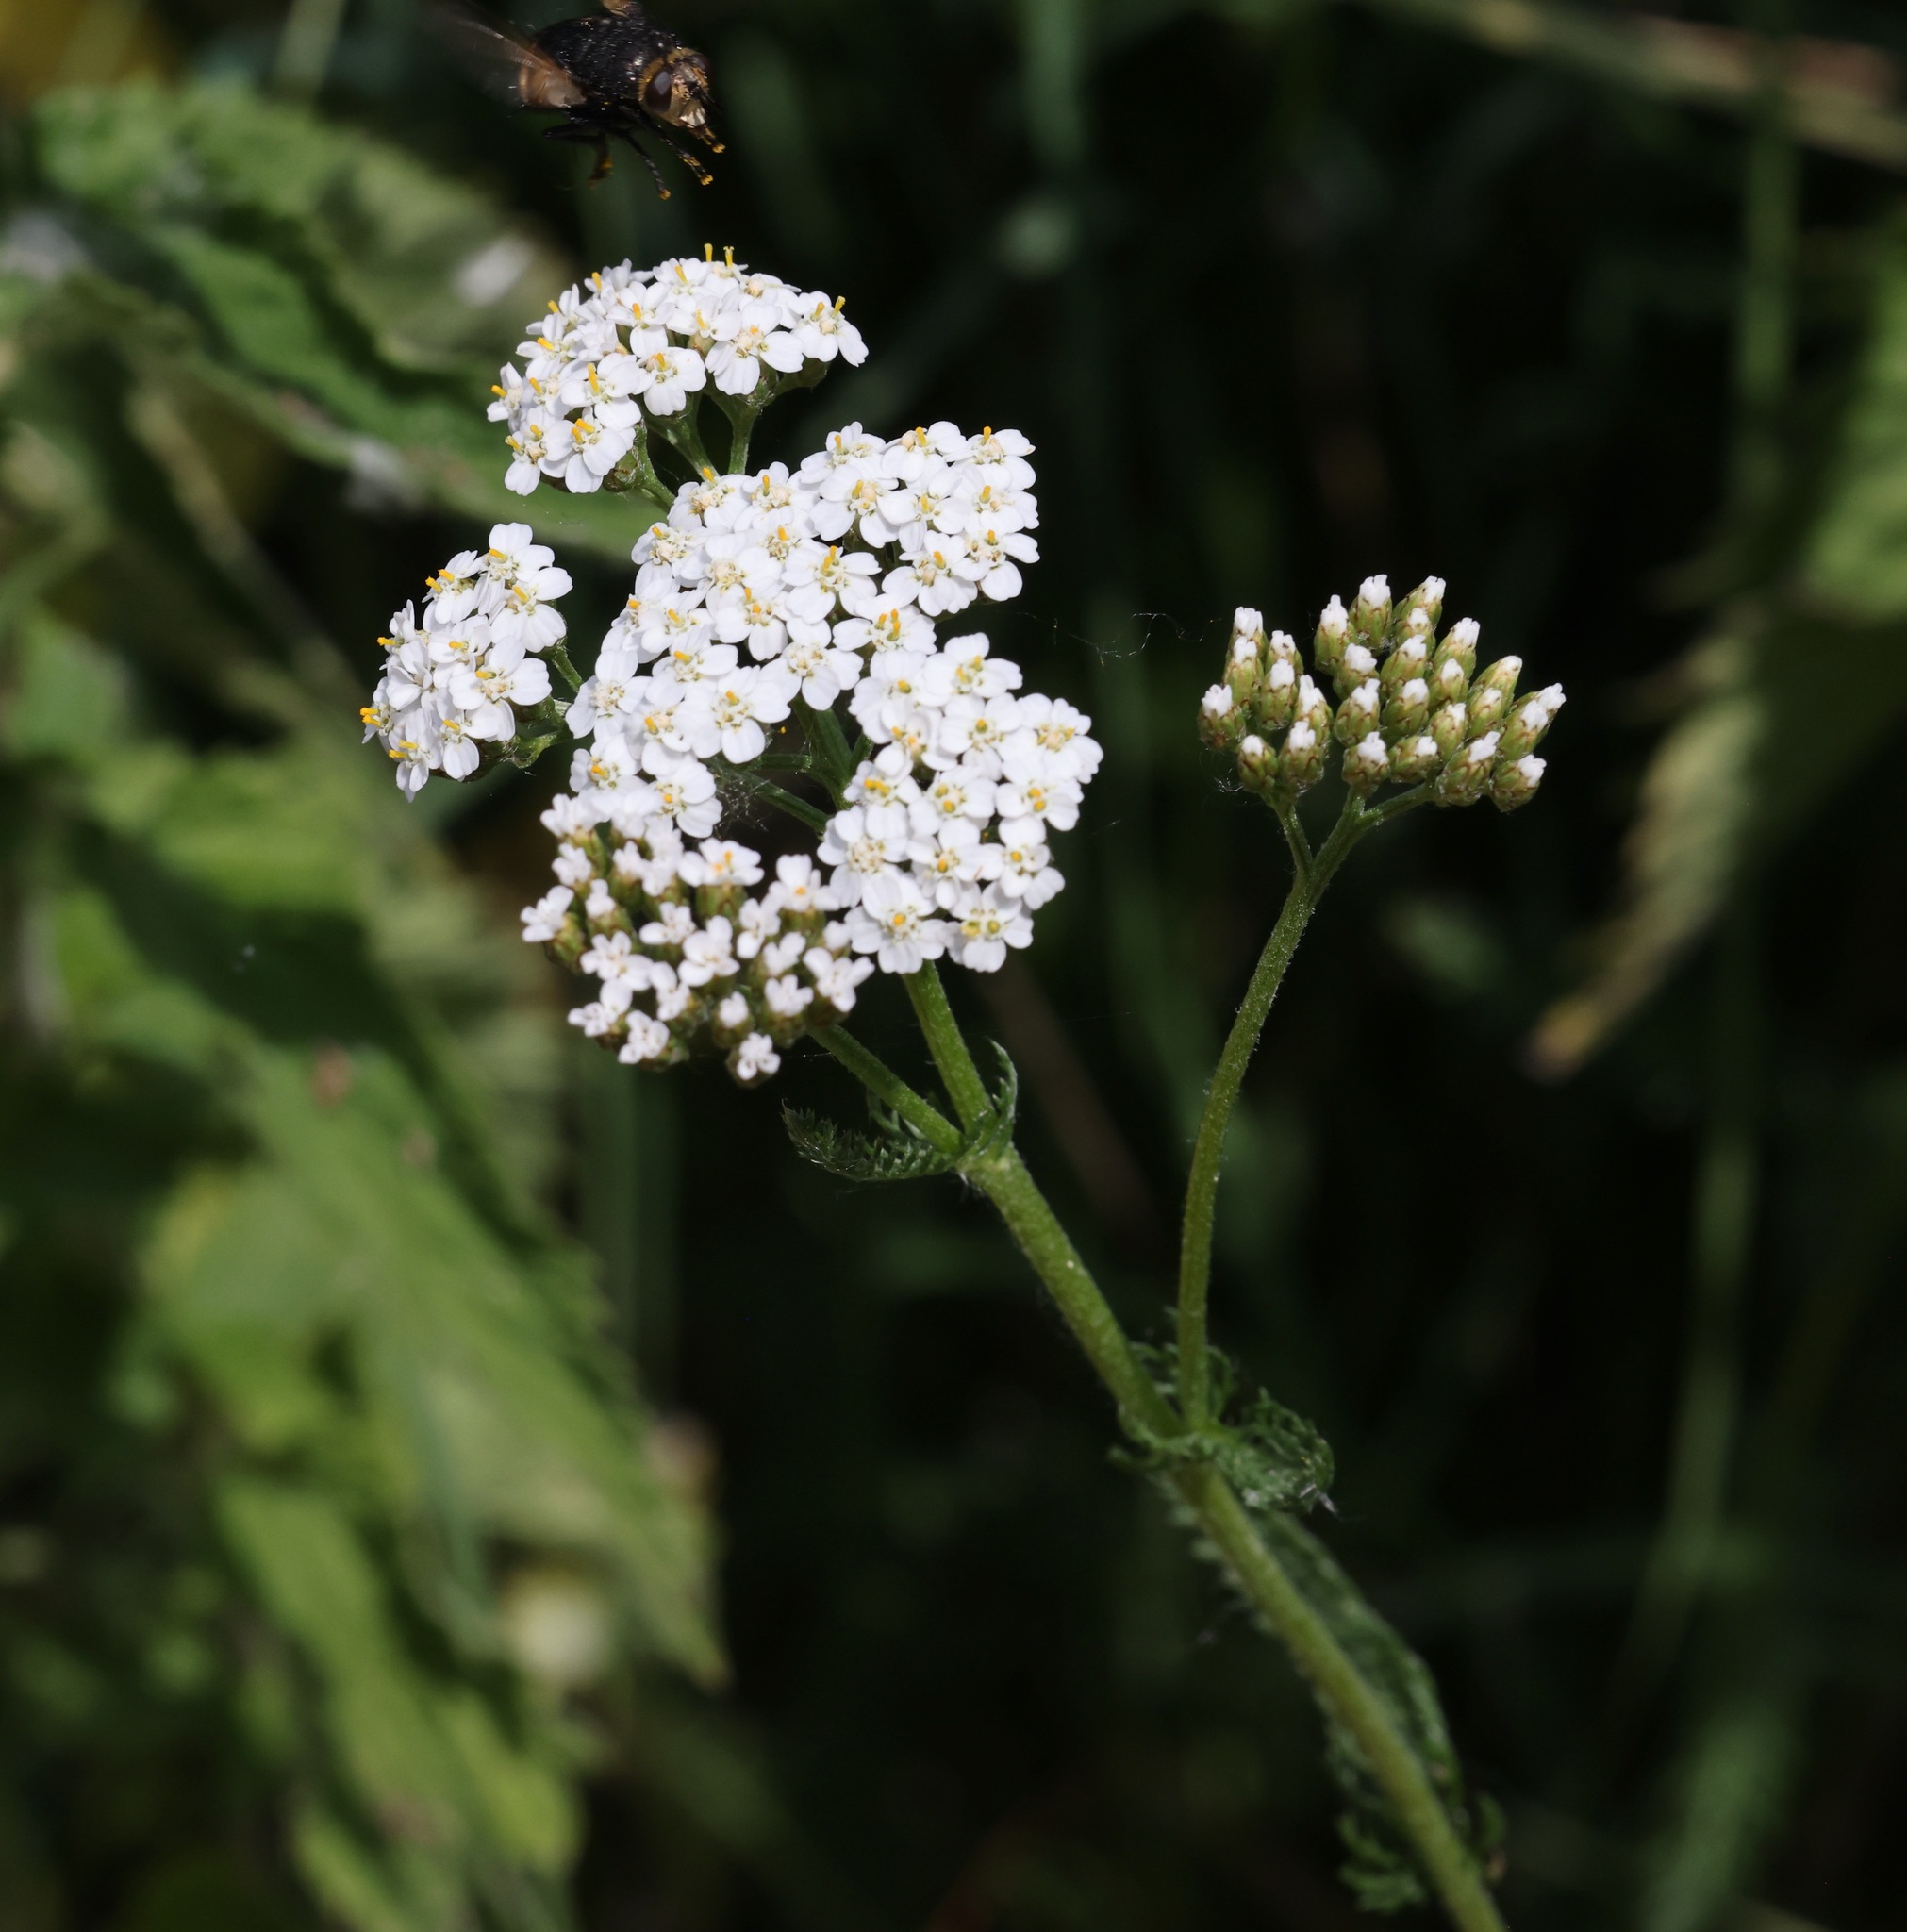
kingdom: Plantae
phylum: Tracheophyta
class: Magnoliopsida
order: Asterales
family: Asteraceae
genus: Achillea
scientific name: Achillea millefolium
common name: Yarrow
